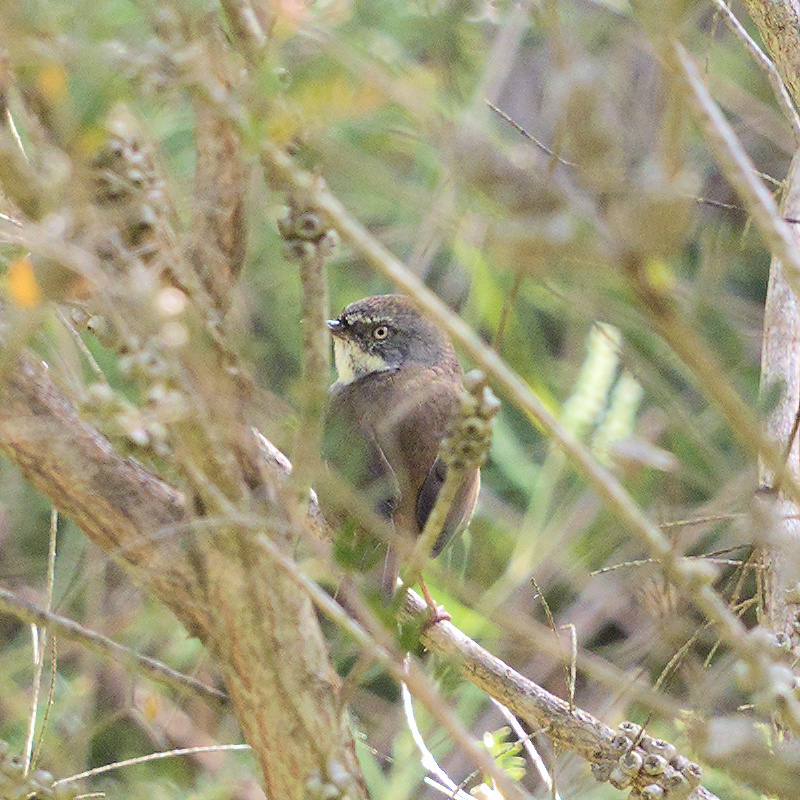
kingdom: Animalia
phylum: Chordata
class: Aves
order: Passeriformes
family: Acanthizidae
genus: Sericornis
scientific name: Sericornis frontalis
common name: White-browed scrubwren
